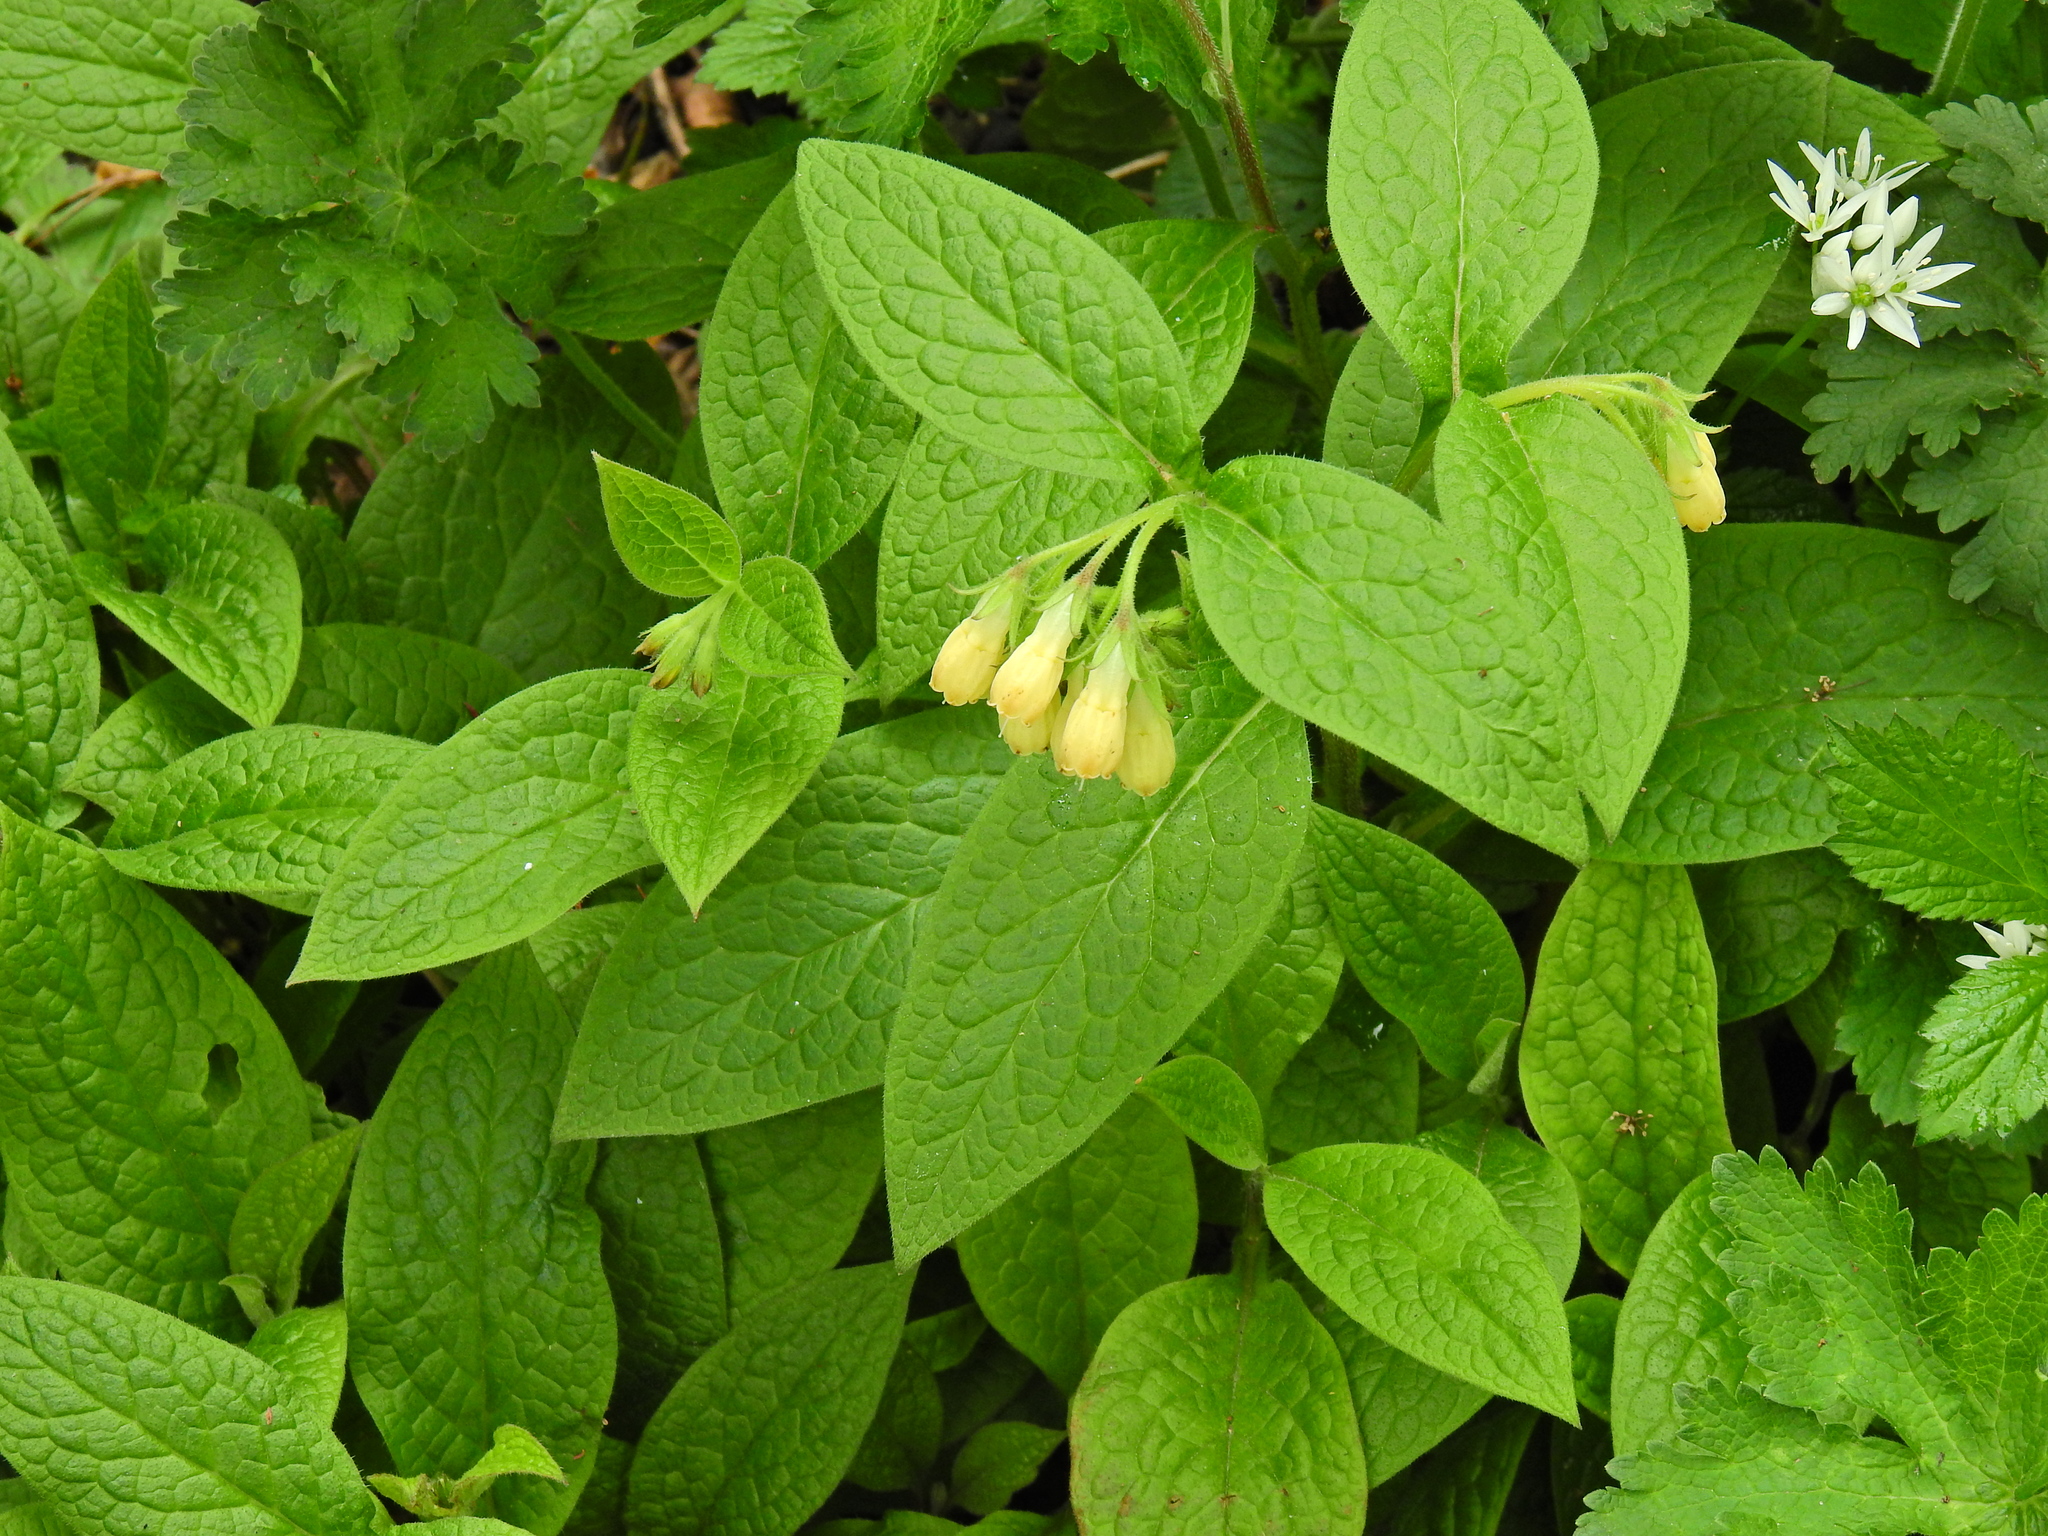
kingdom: Plantae
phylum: Tracheophyta
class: Magnoliopsida
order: Boraginales
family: Boraginaceae
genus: Symphytum
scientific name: Symphytum tuberosum
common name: Tuberous comfrey
